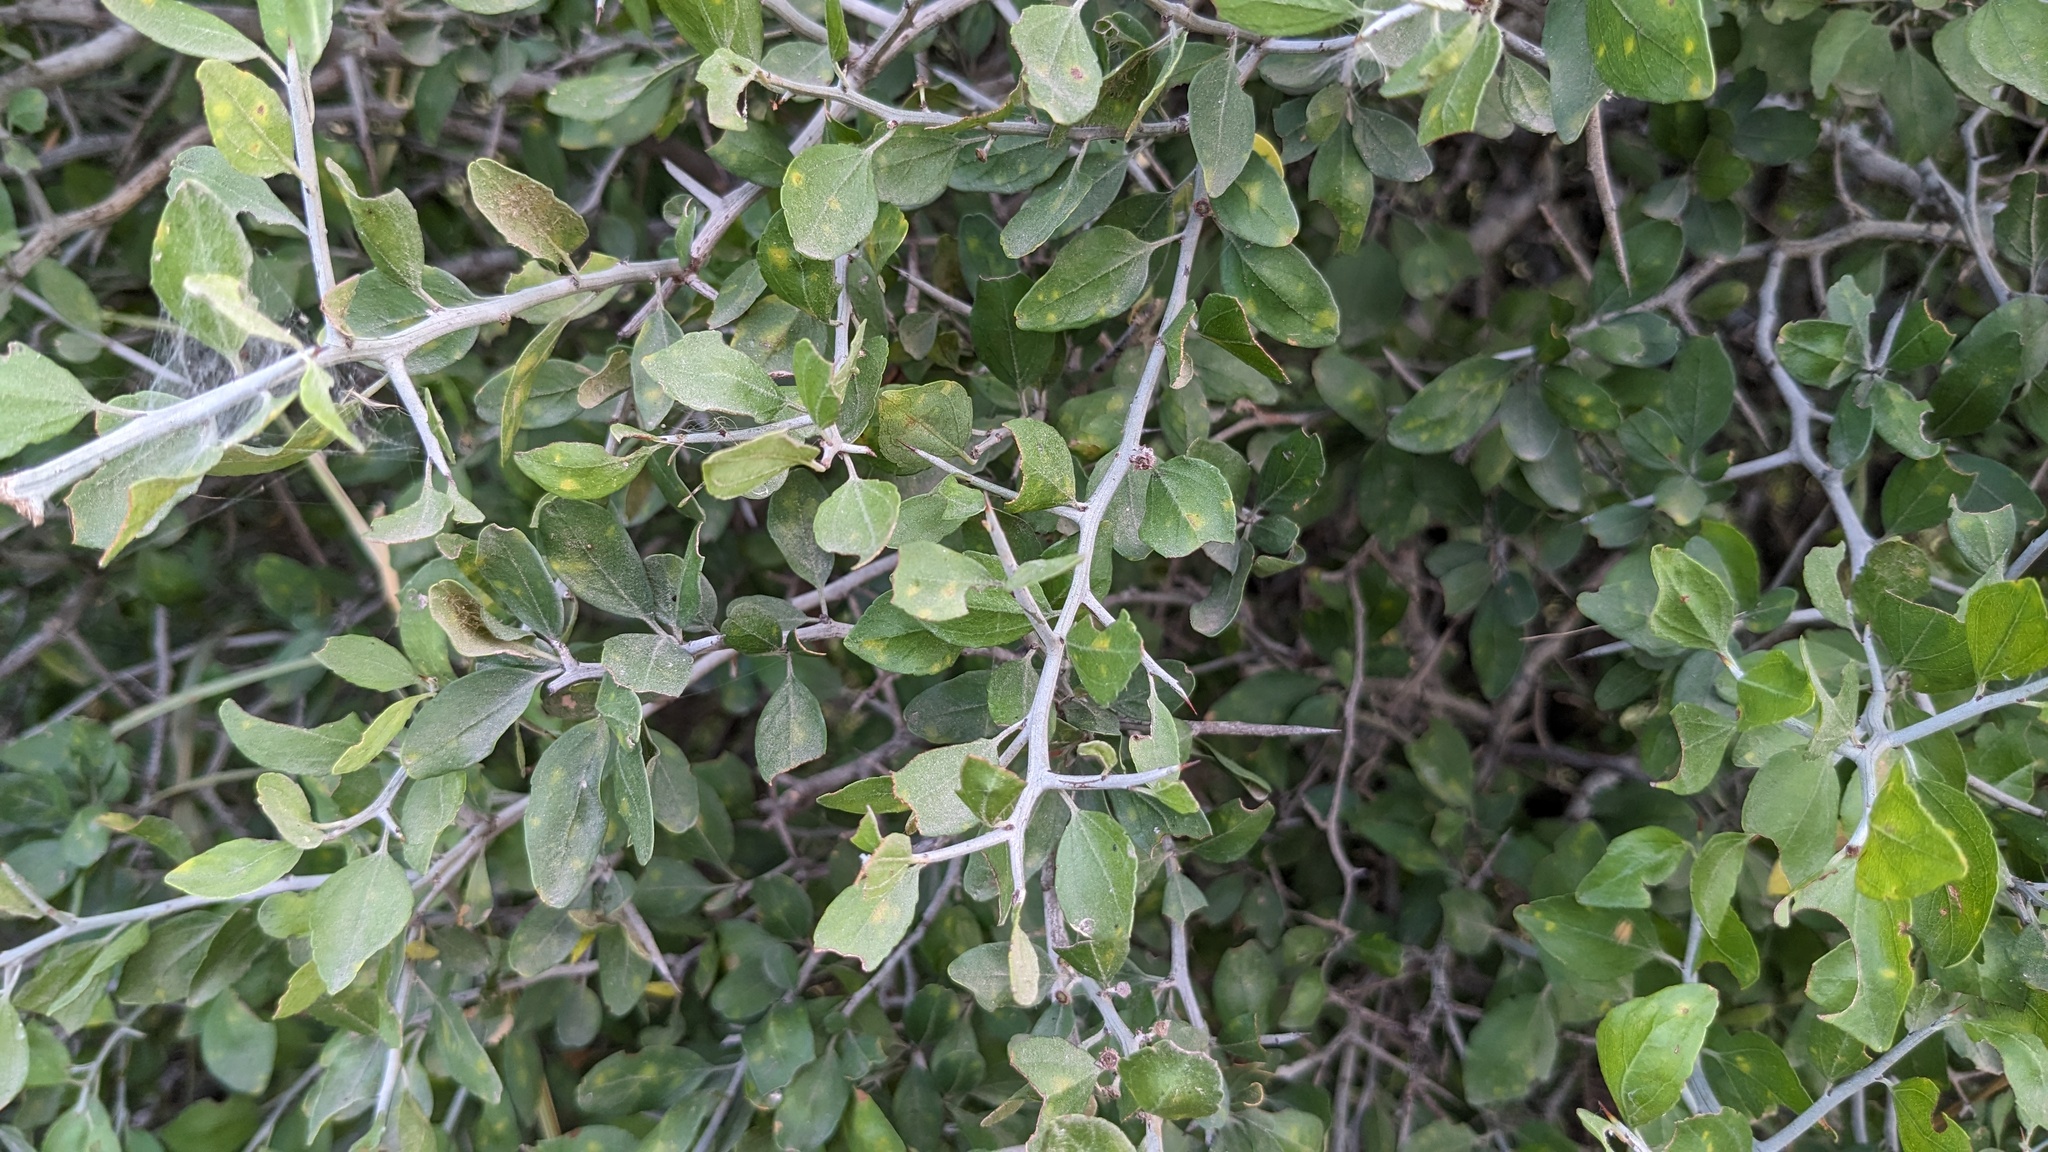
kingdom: Plantae
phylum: Tracheophyta
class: Magnoliopsida
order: Rosales
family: Rhamnaceae
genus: Sarcomphalus
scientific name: Sarcomphalus obtusifolius
